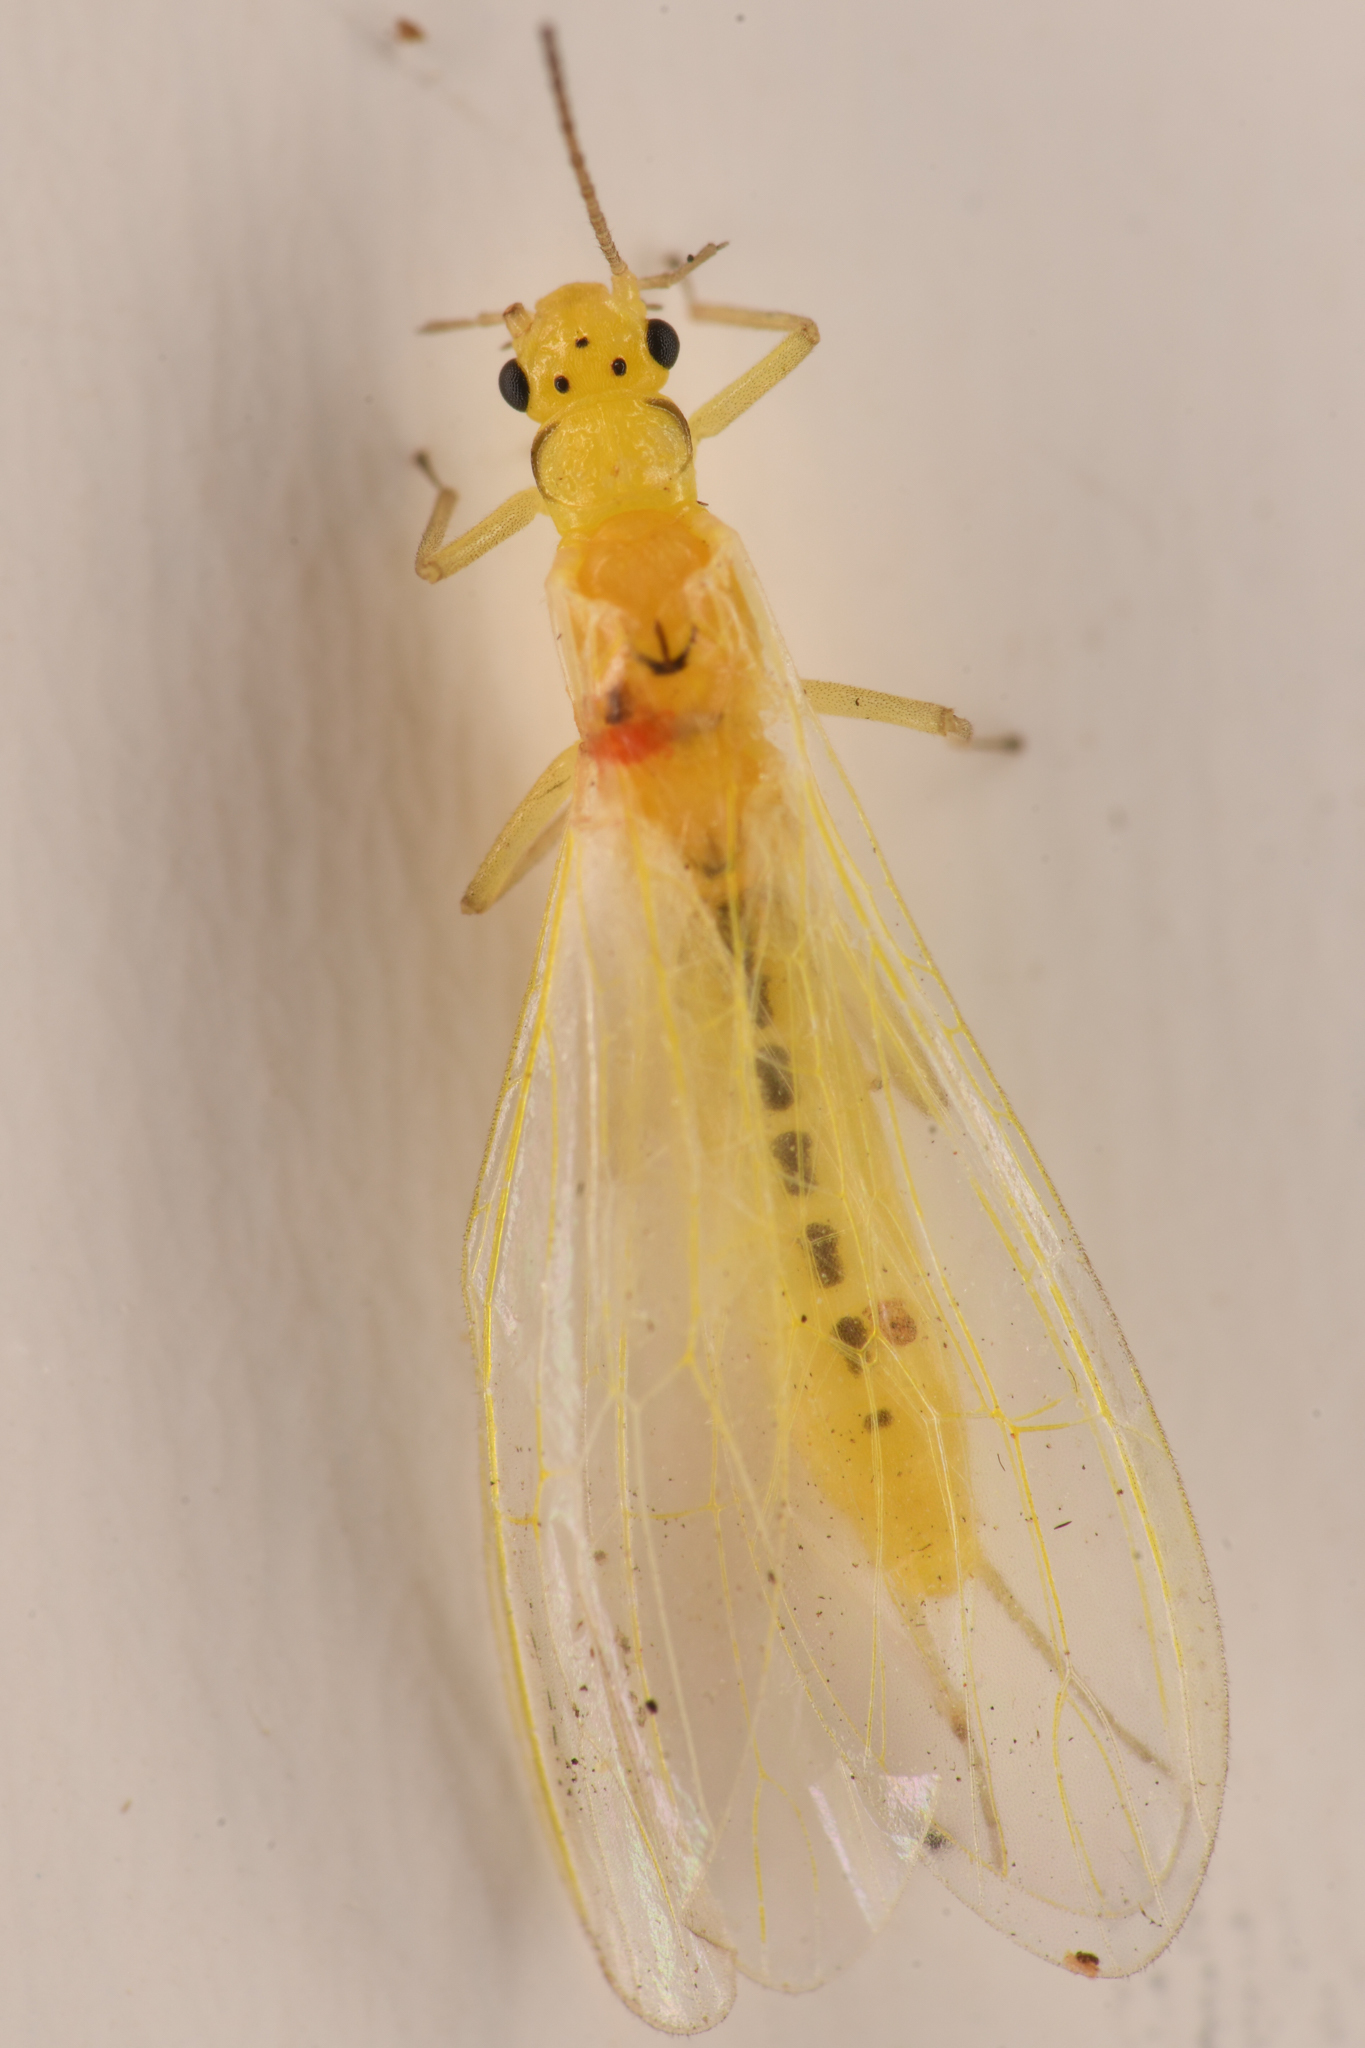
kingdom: Animalia
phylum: Arthropoda
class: Insecta
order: Plecoptera
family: Chloroperlidae
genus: Plumiperla
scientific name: Plumiperla diversa
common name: Margined sallfly
